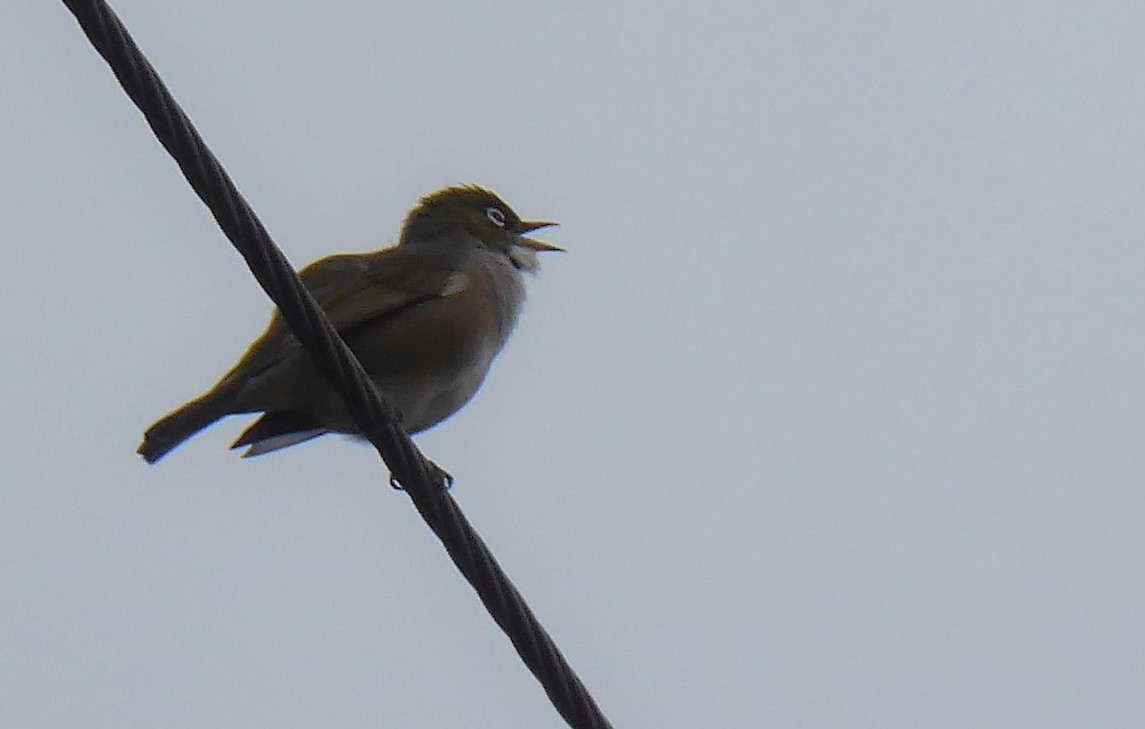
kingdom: Animalia
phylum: Chordata
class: Aves
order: Passeriformes
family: Zosteropidae
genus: Zosterops
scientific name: Zosterops lateralis
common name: Silvereye
